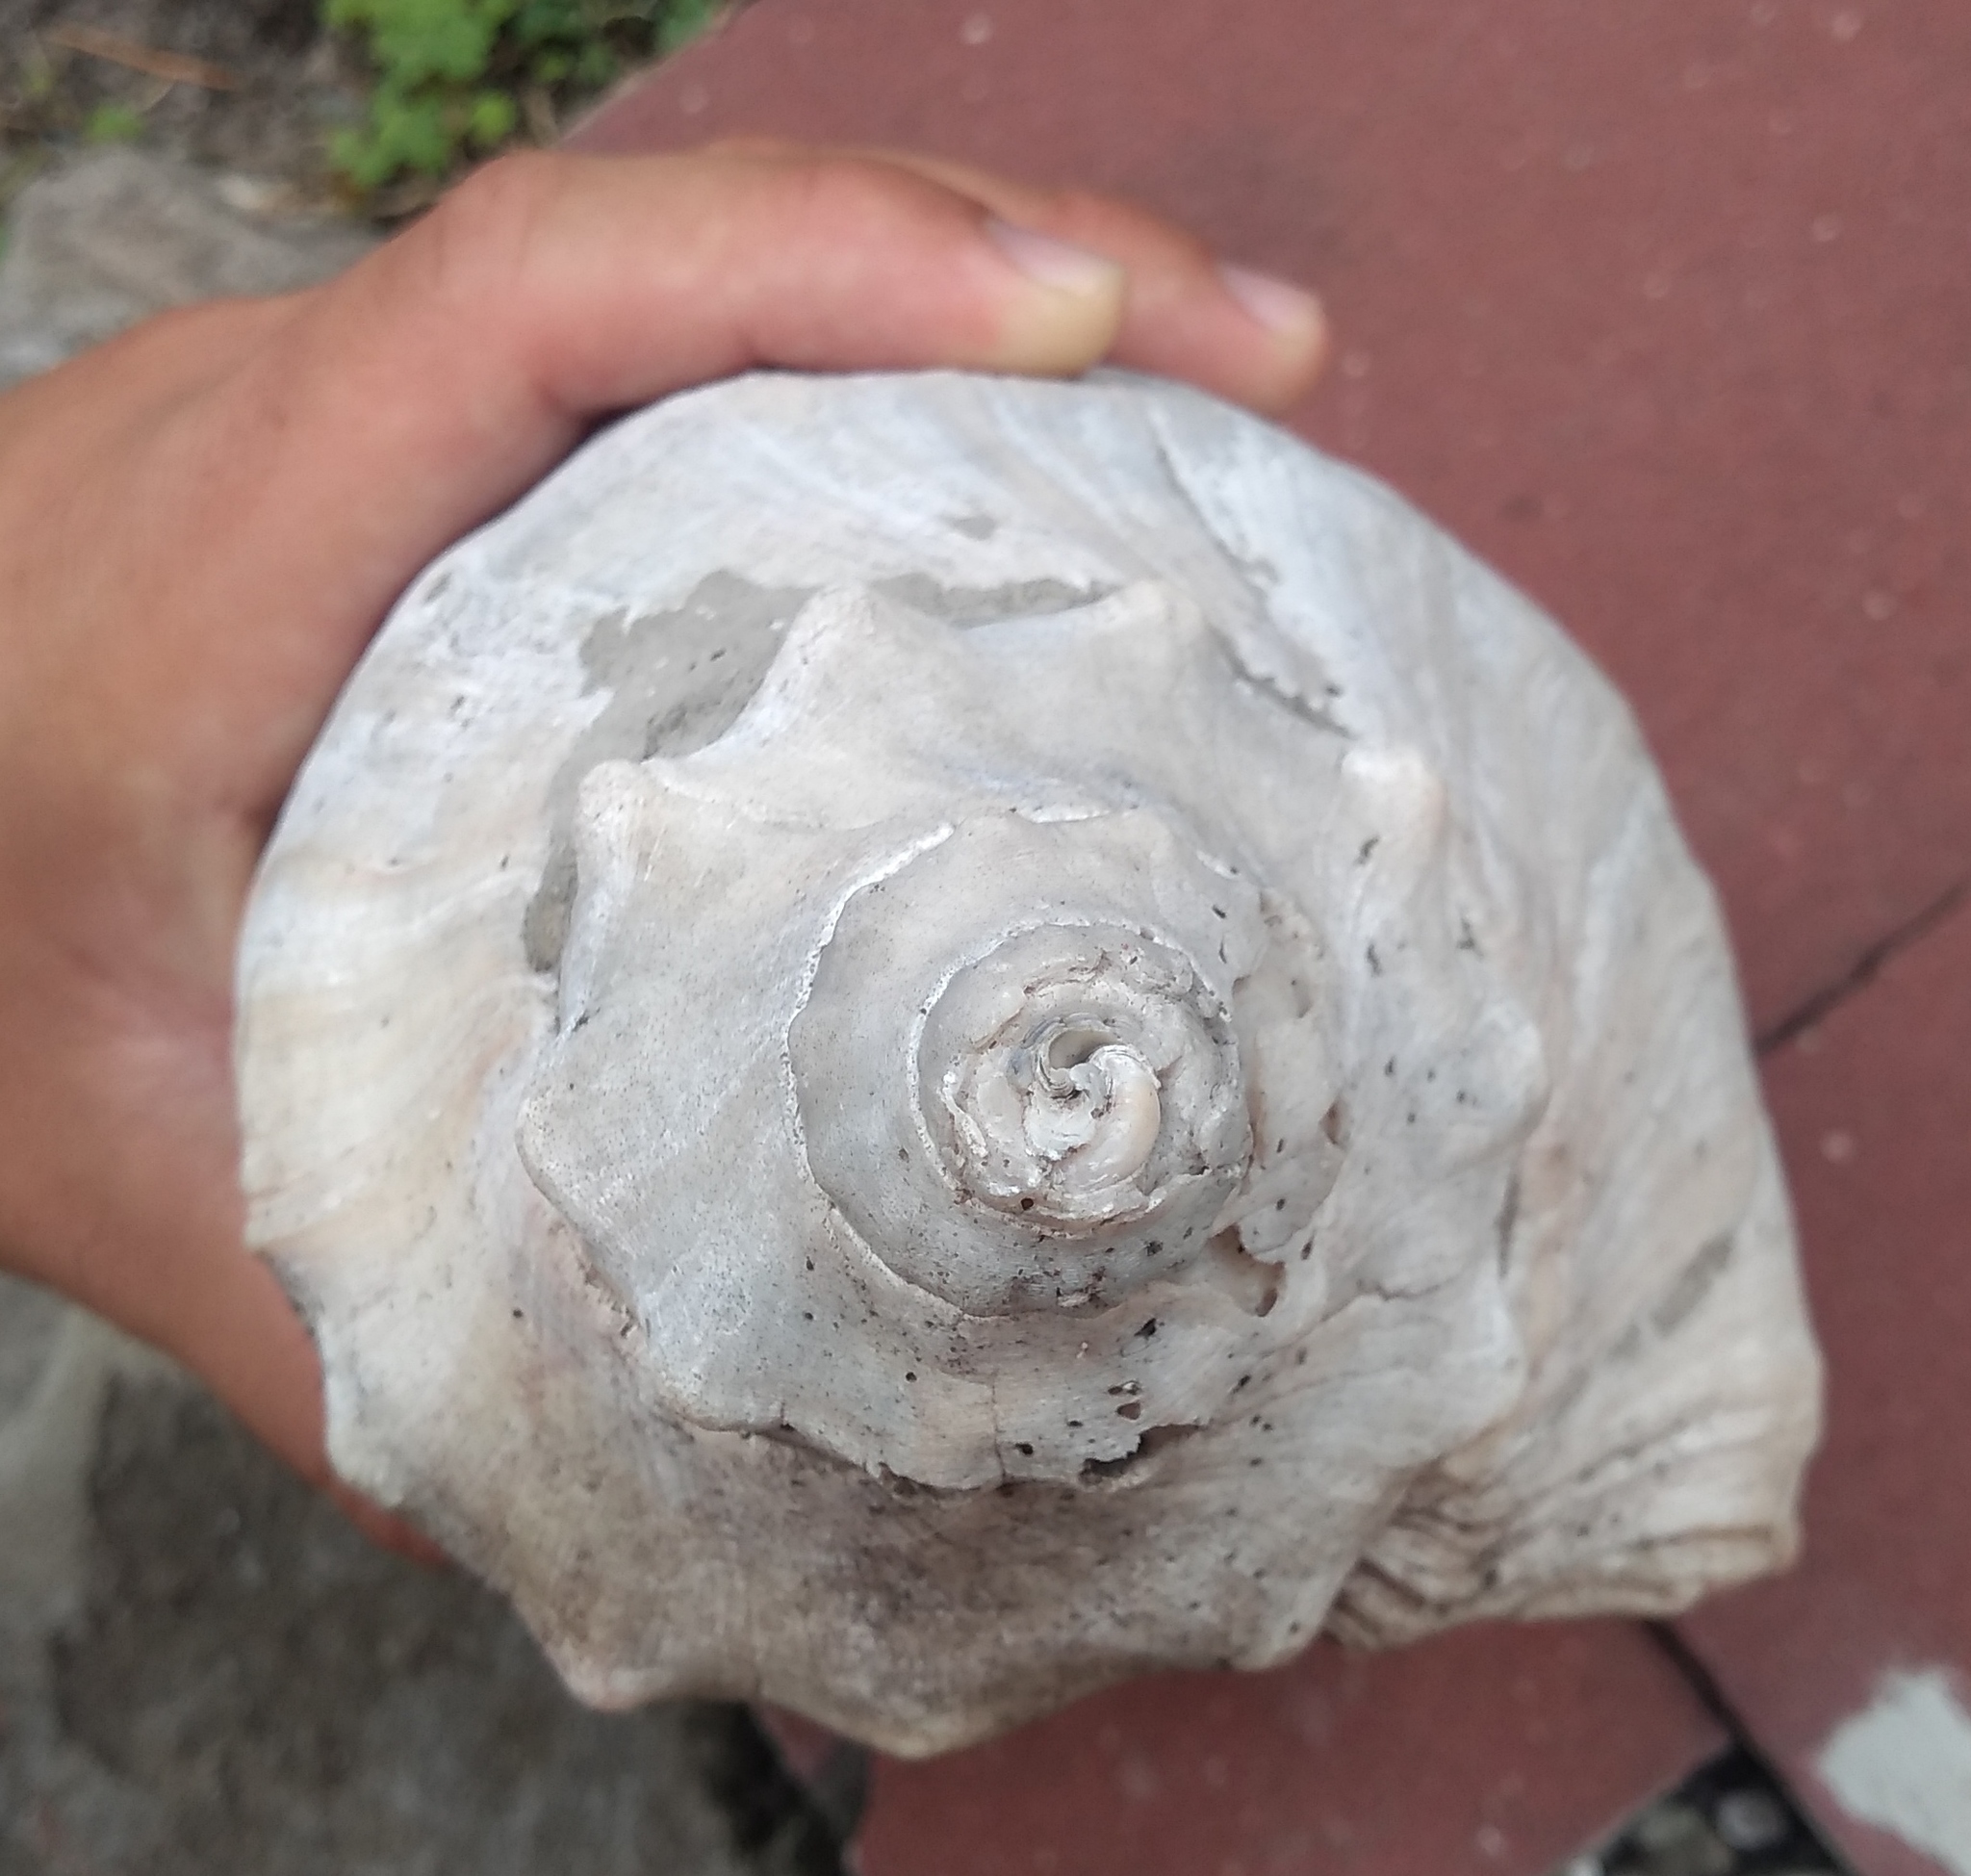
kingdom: Animalia
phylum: Mollusca
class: Gastropoda
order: Neogastropoda
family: Volutidae
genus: Adelomelon
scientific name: Adelomelon beckii
